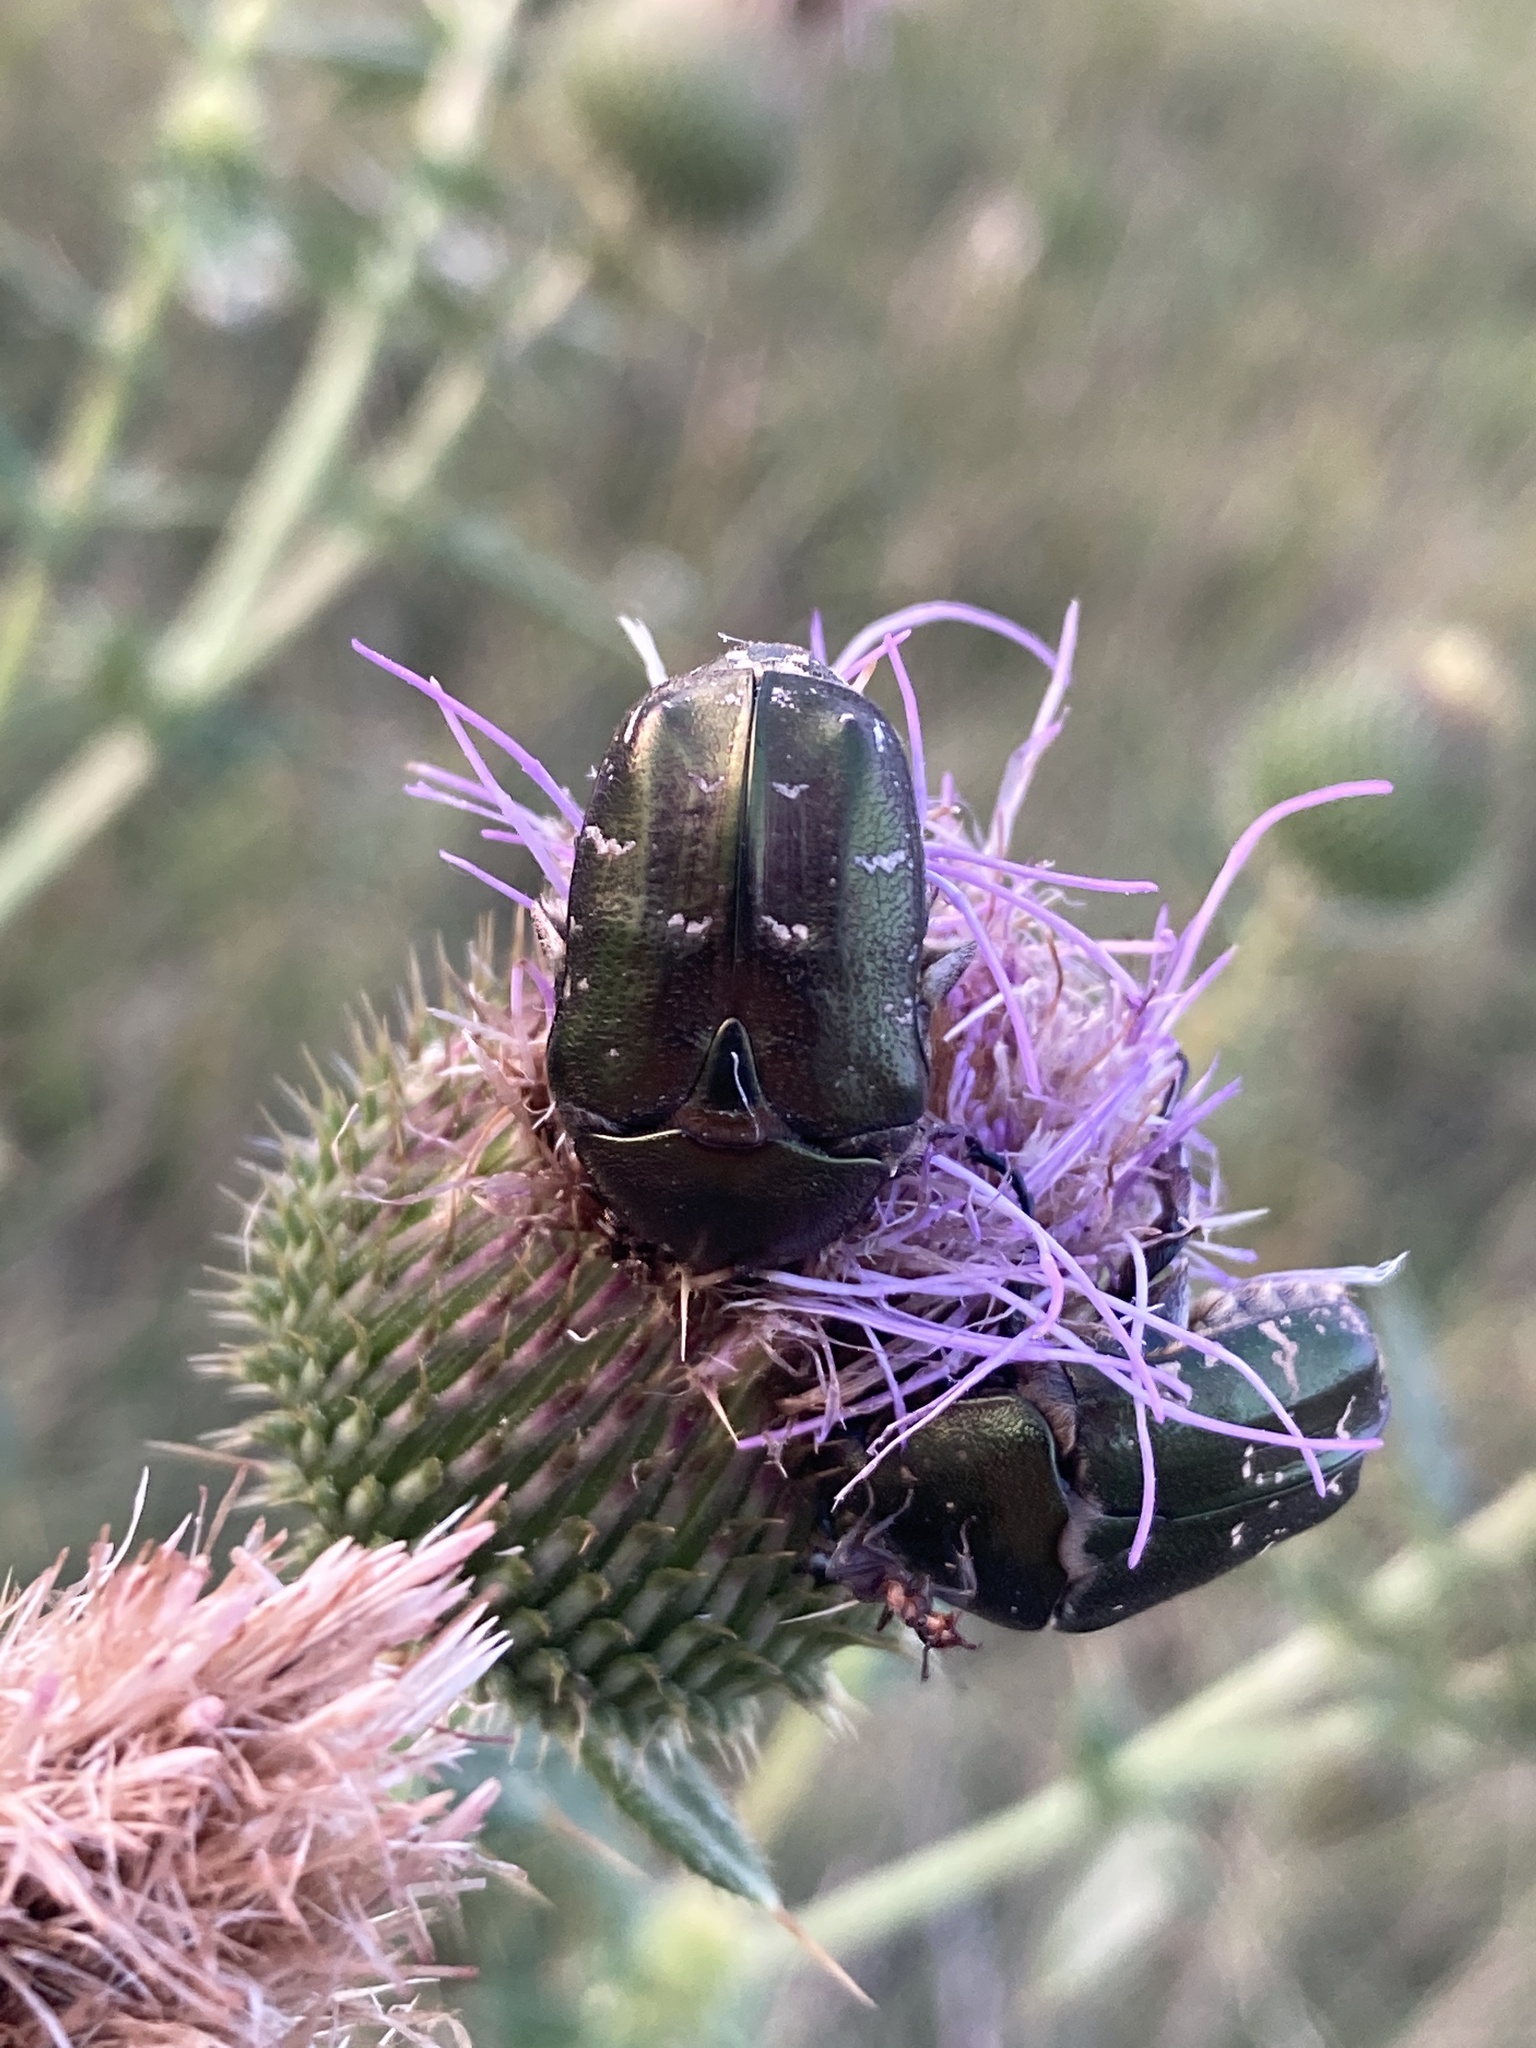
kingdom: Animalia
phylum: Arthropoda
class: Insecta
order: Coleoptera
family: Scarabaeidae
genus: Protaetia
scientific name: Protaetia cuprea
